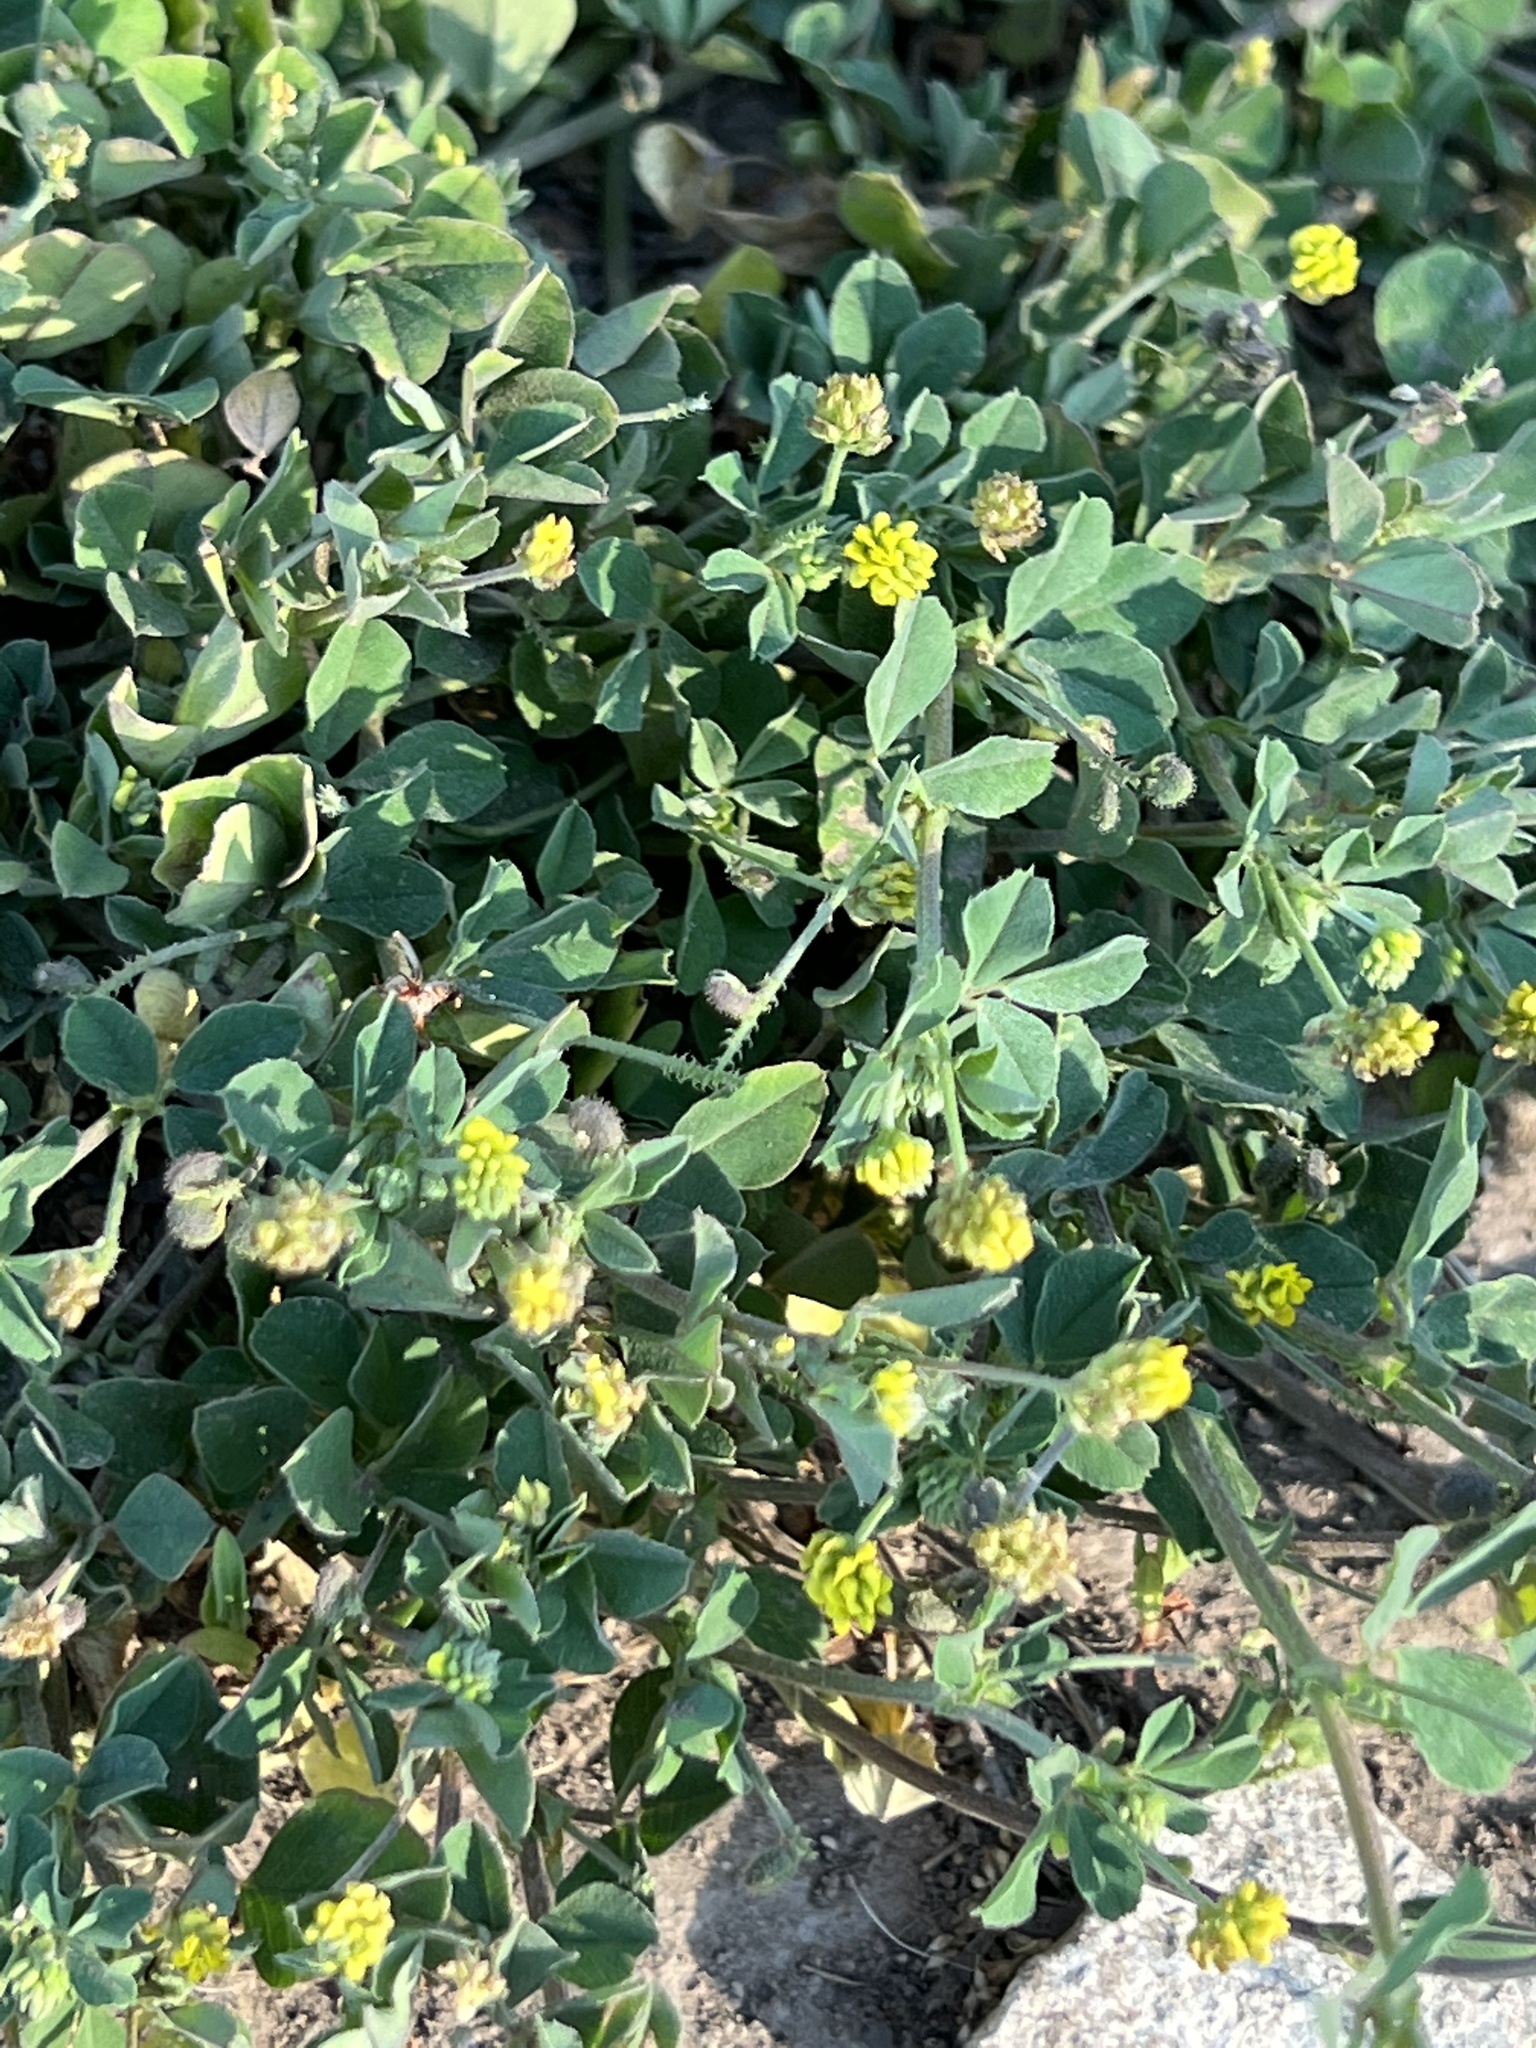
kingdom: Plantae
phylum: Tracheophyta
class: Magnoliopsida
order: Fabales
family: Fabaceae
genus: Medicago
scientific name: Medicago lupulina
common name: Black medick
